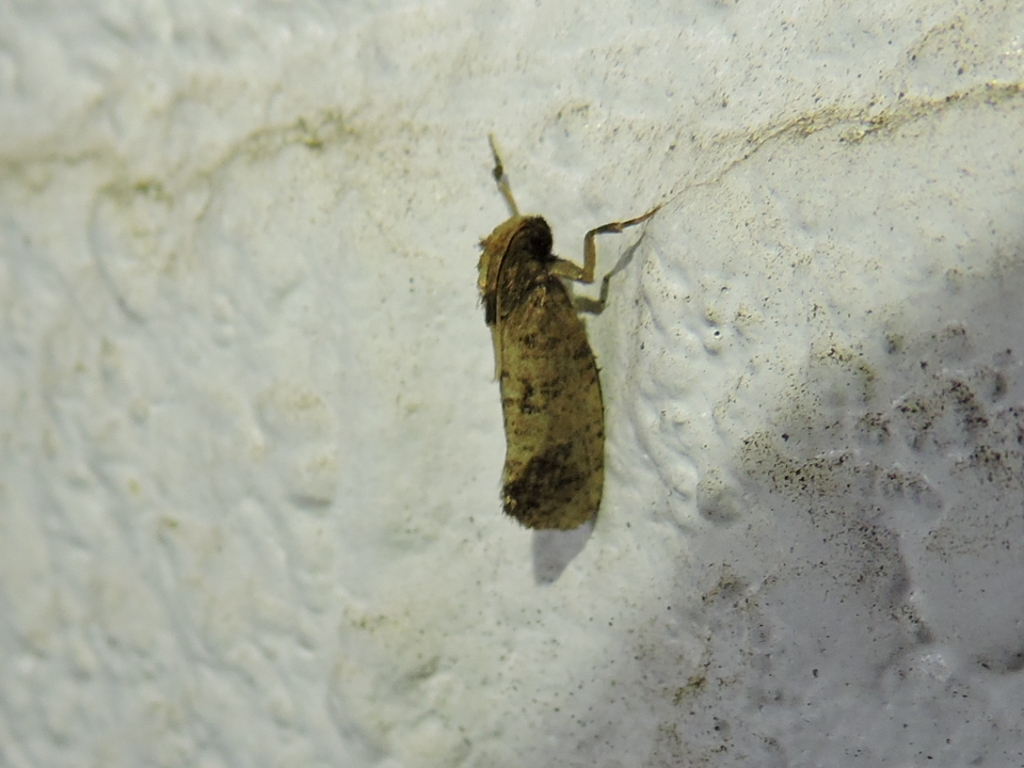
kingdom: Animalia
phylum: Arthropoda
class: Insecta
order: Lepidoptera
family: Tineidae
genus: Acrolophus
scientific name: Acrolophus texanella
